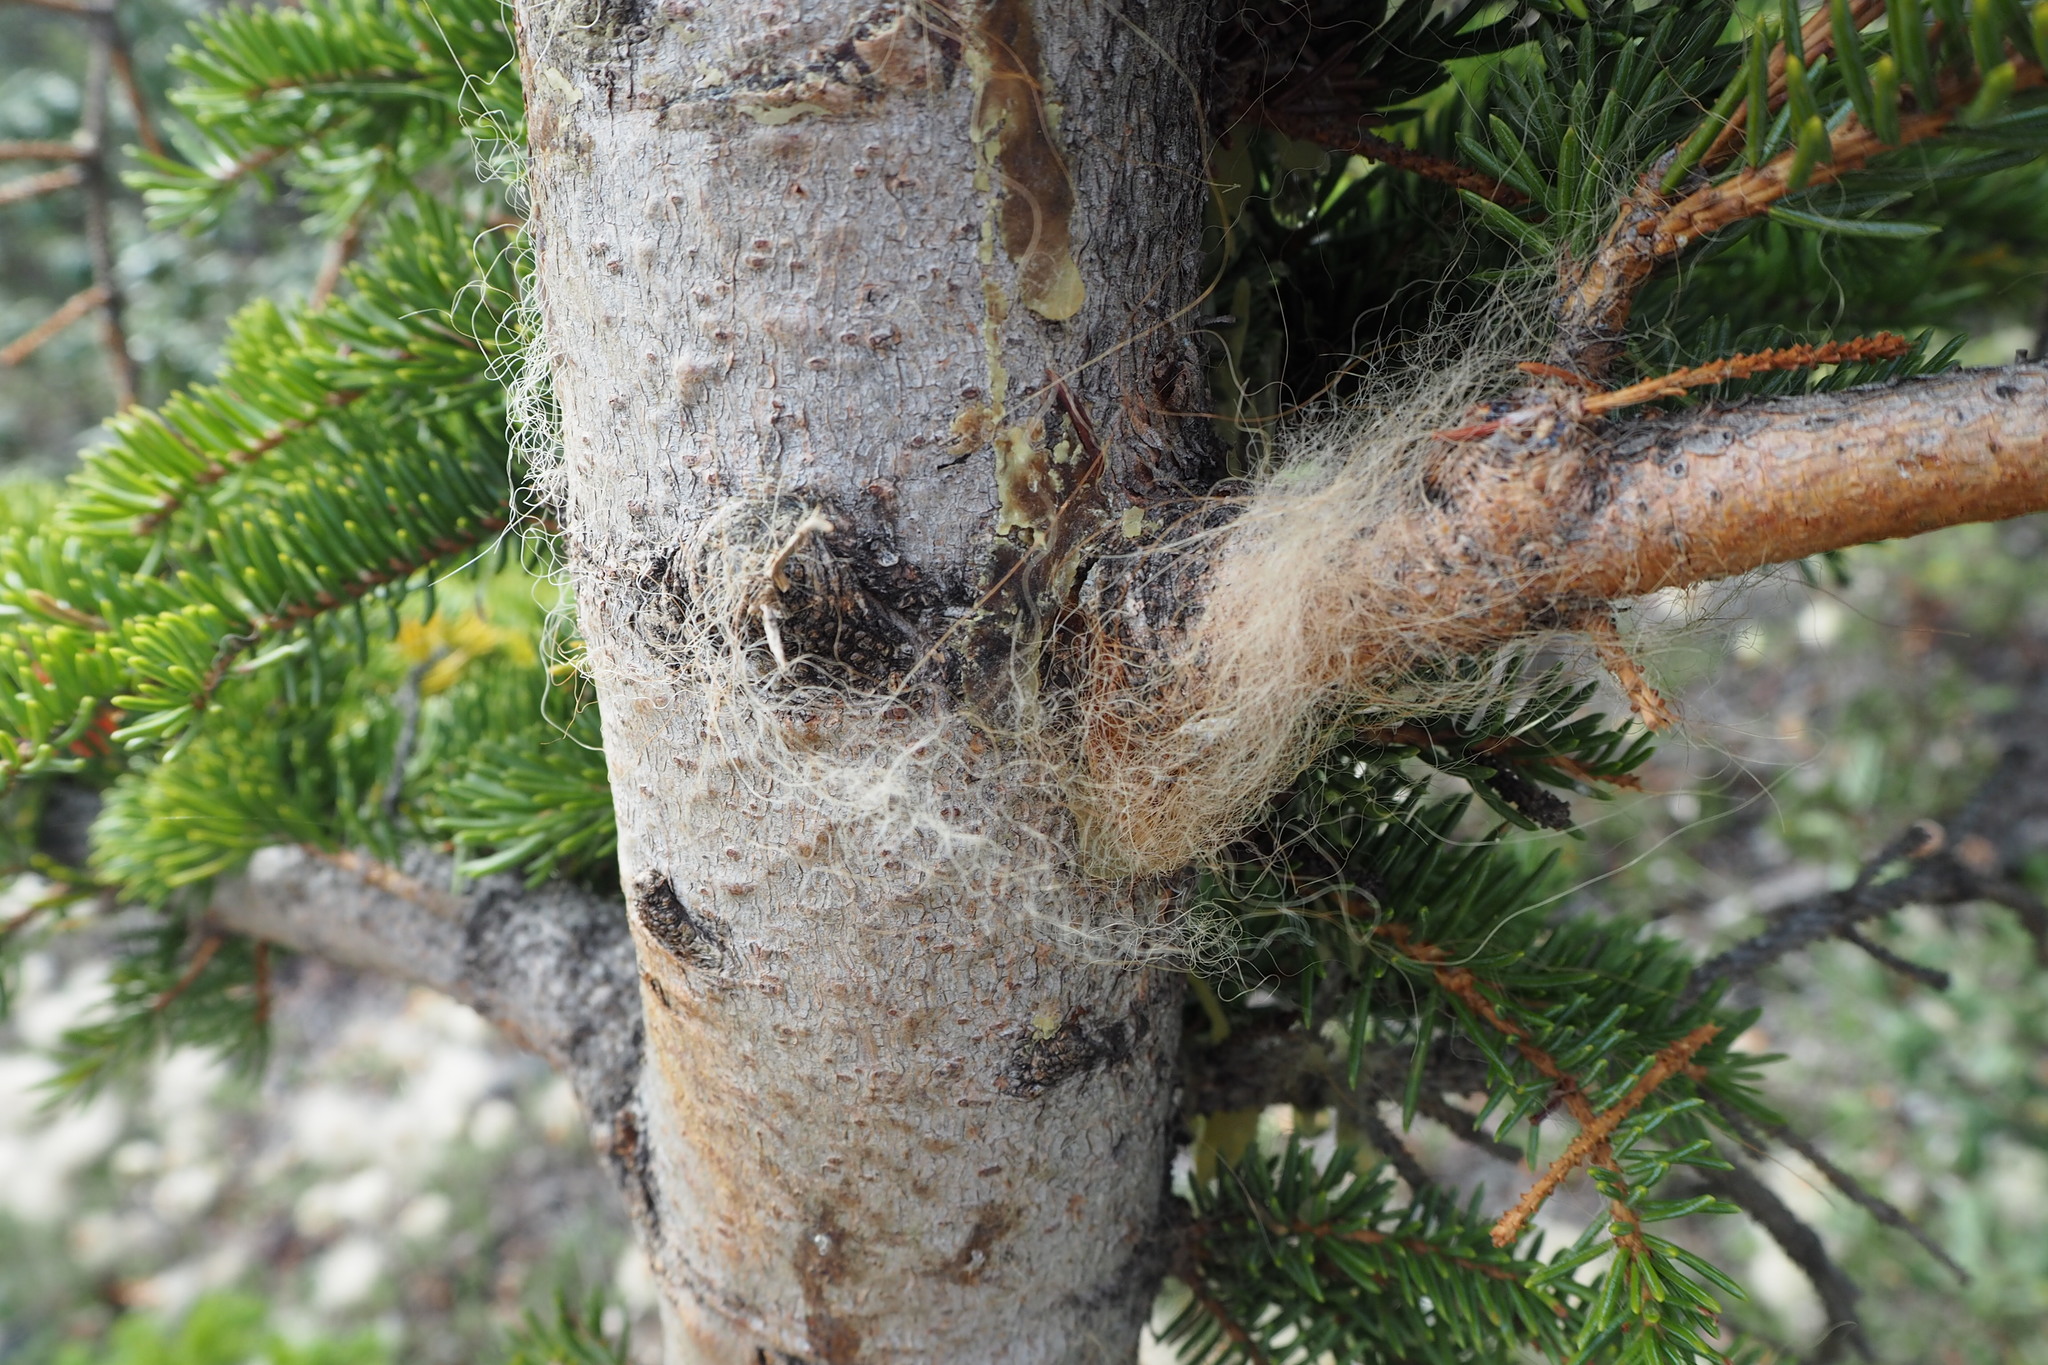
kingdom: Animalia
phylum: Chordata
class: Mammalia
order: Carnivora
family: Ursidae
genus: Ursus
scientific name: Ursus arctos
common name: Brown bear
